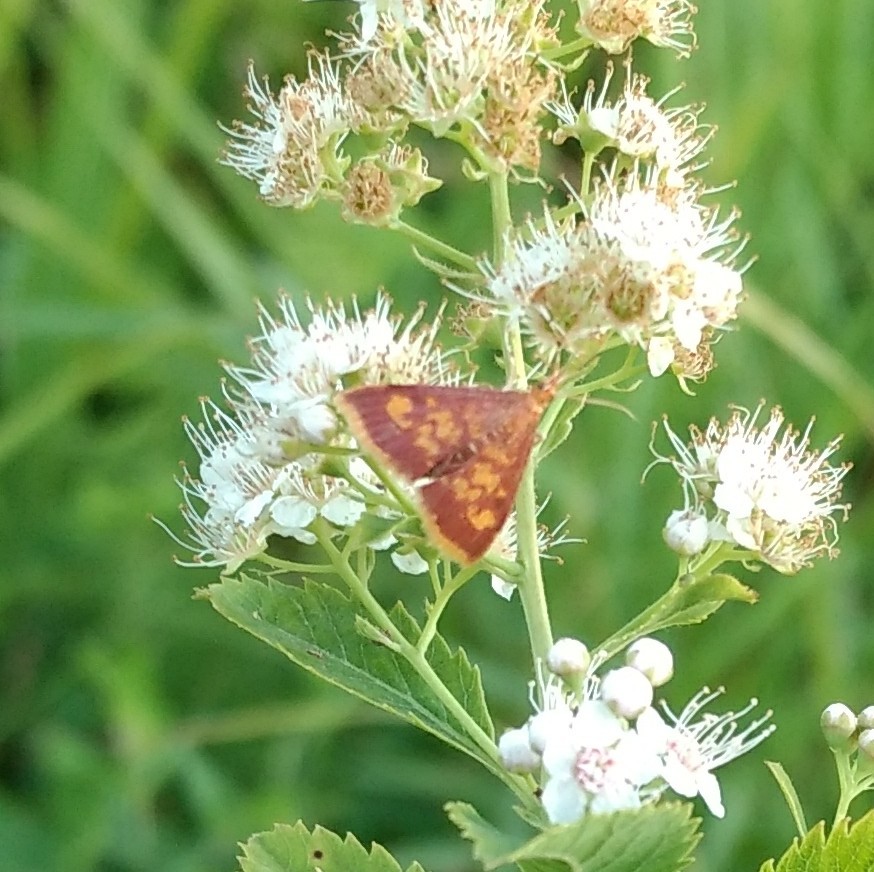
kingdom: Animalia
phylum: Arthropoda
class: Insecta
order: Lepidoptera
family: Crambidae
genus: Pyrausta
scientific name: Pyrausta acrionalis
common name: Mint-loving pyrausta moth
